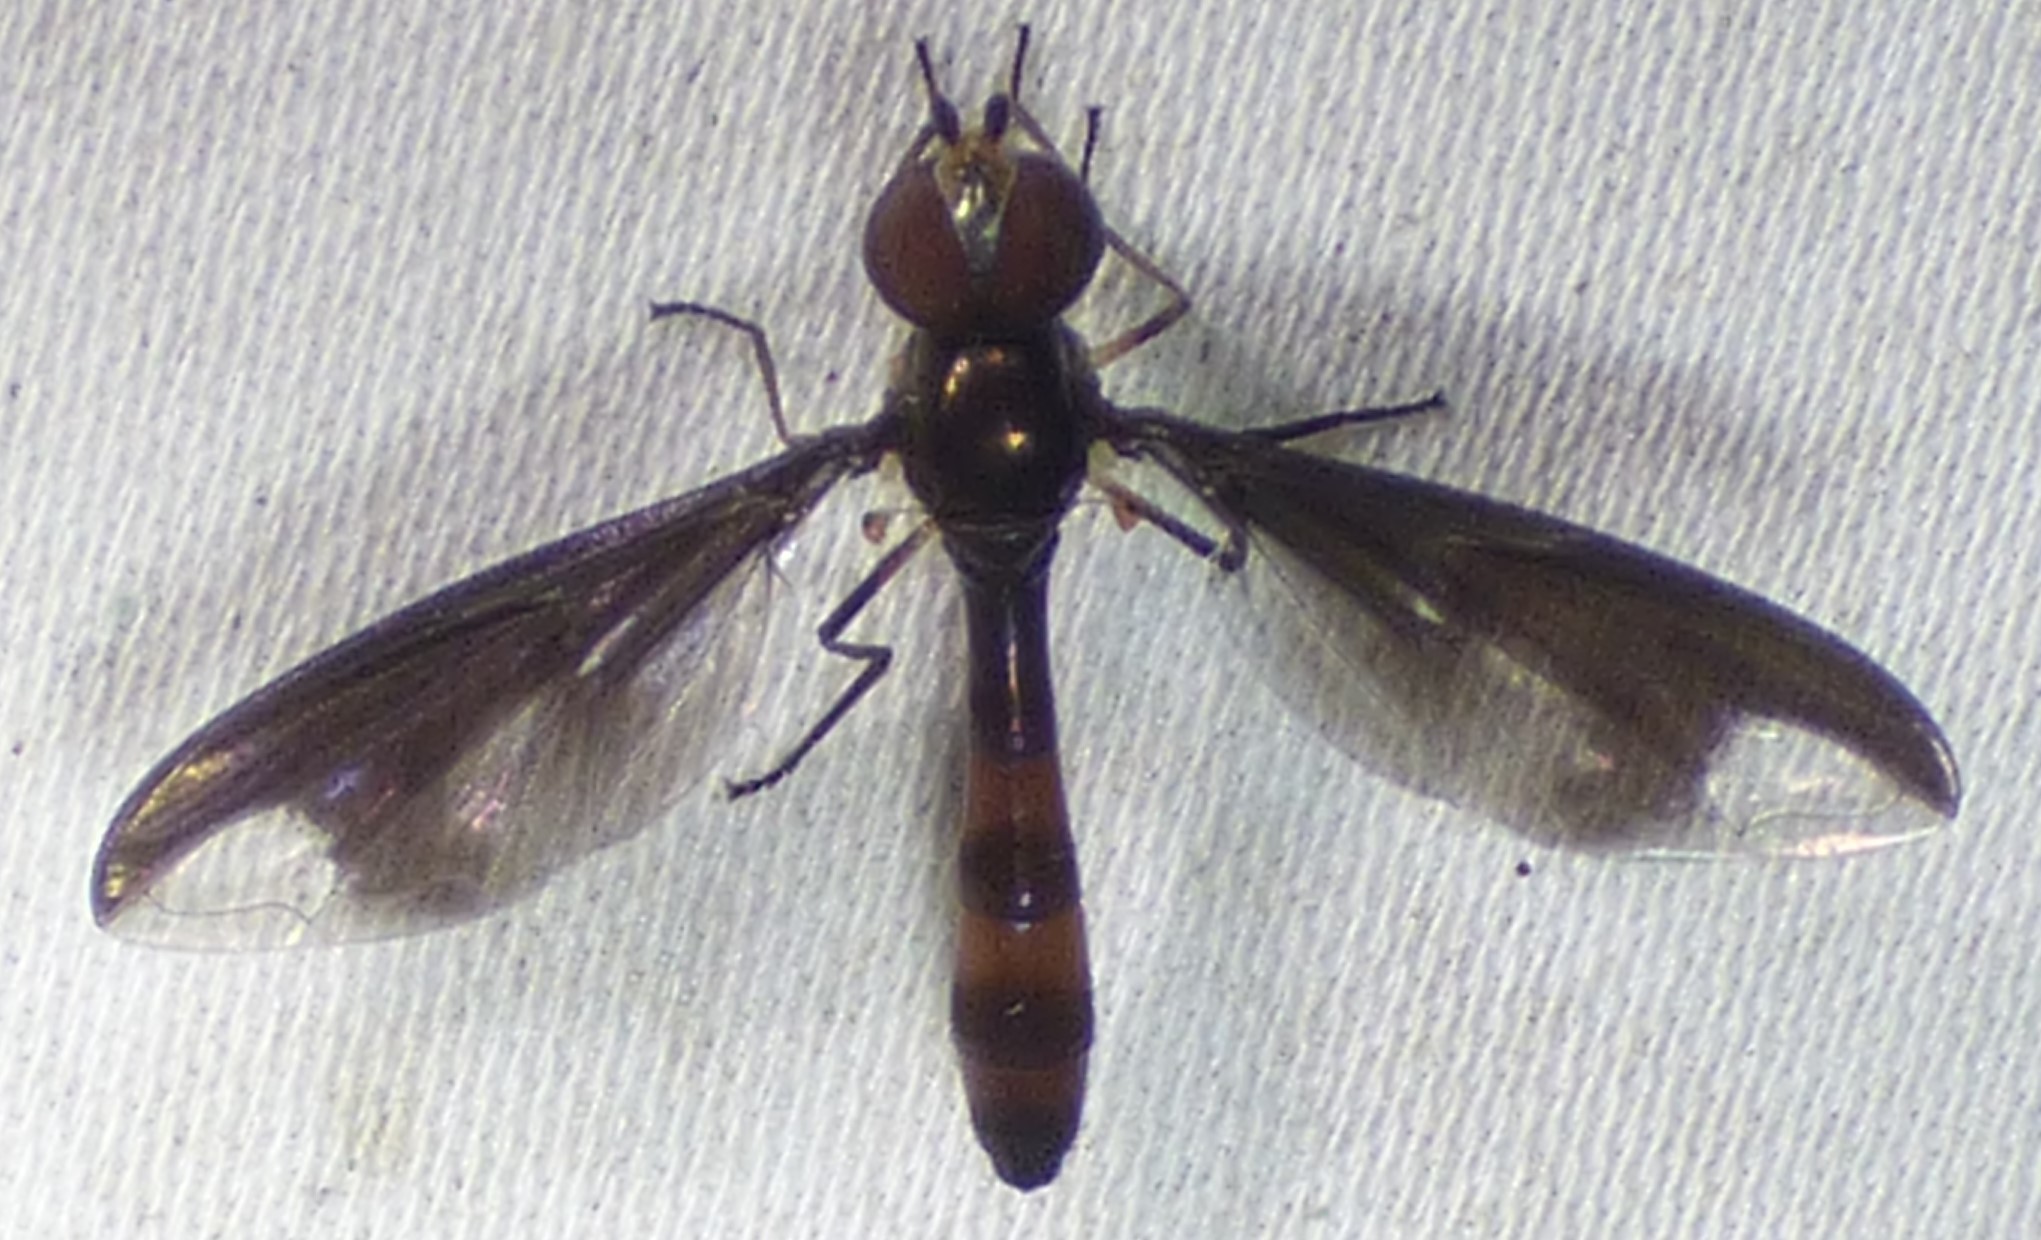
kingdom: Animalia
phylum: Arthropoda
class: Insecta
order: Diptera
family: Syrphidae
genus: Ocyptamus
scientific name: Ocyptamus fuscipennis
